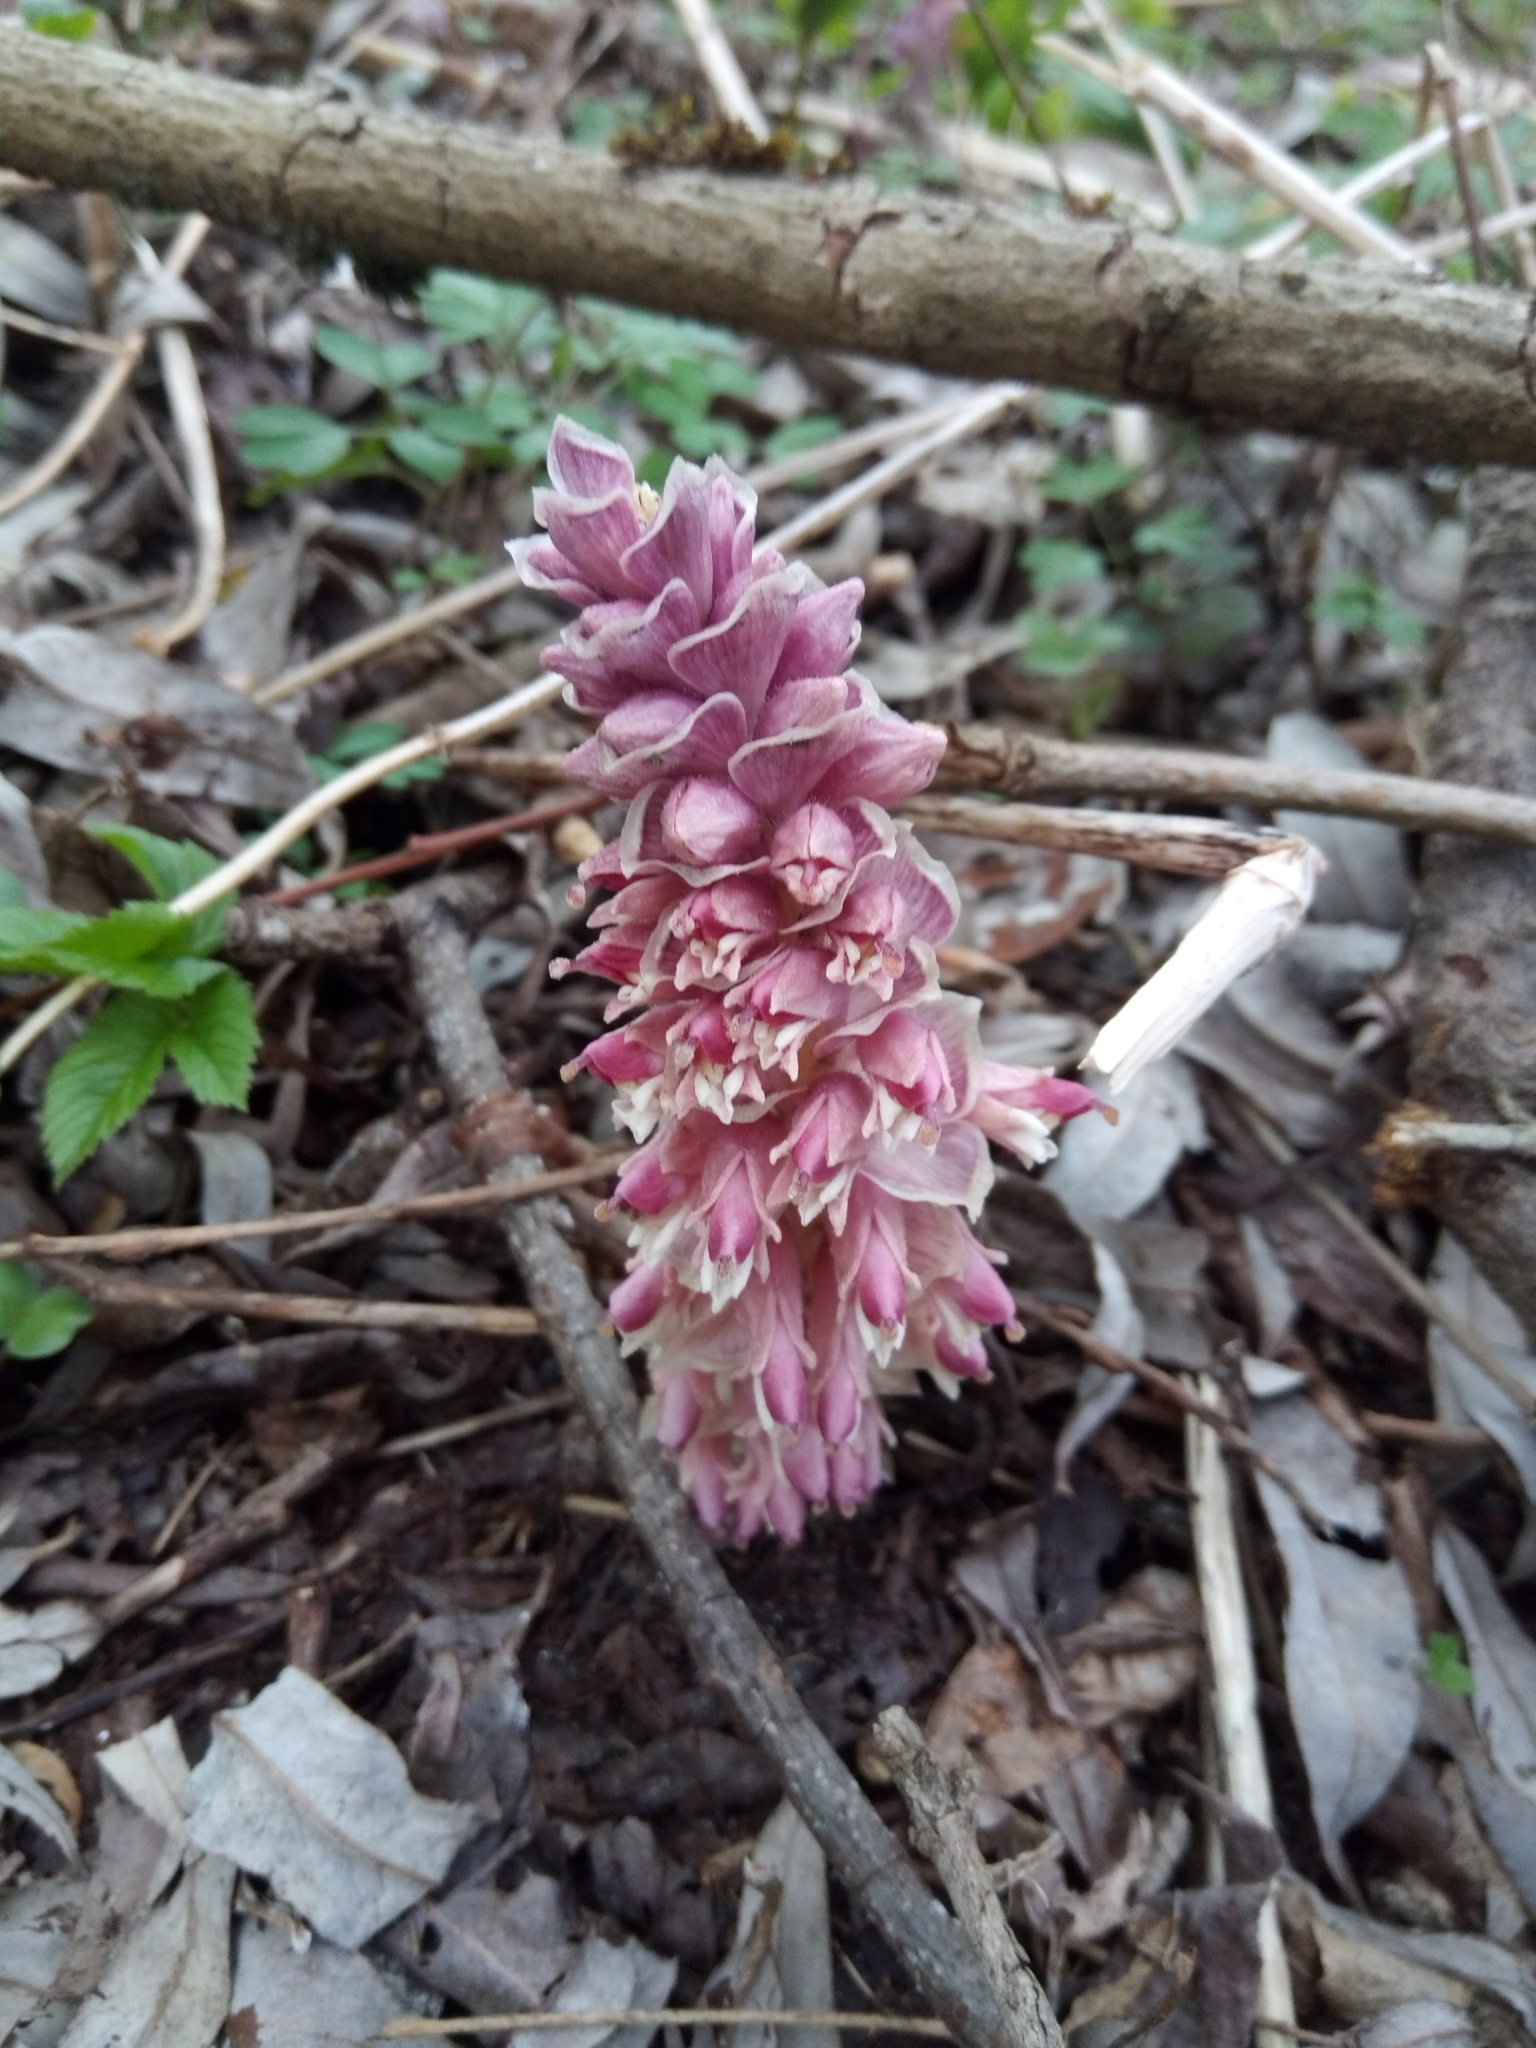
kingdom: Plantae
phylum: Tracheophyta
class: Magnoliopsida
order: Lamiales
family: Orobanchaceae
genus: Lathraea
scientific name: Lathraea squamaria
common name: Toothwort
